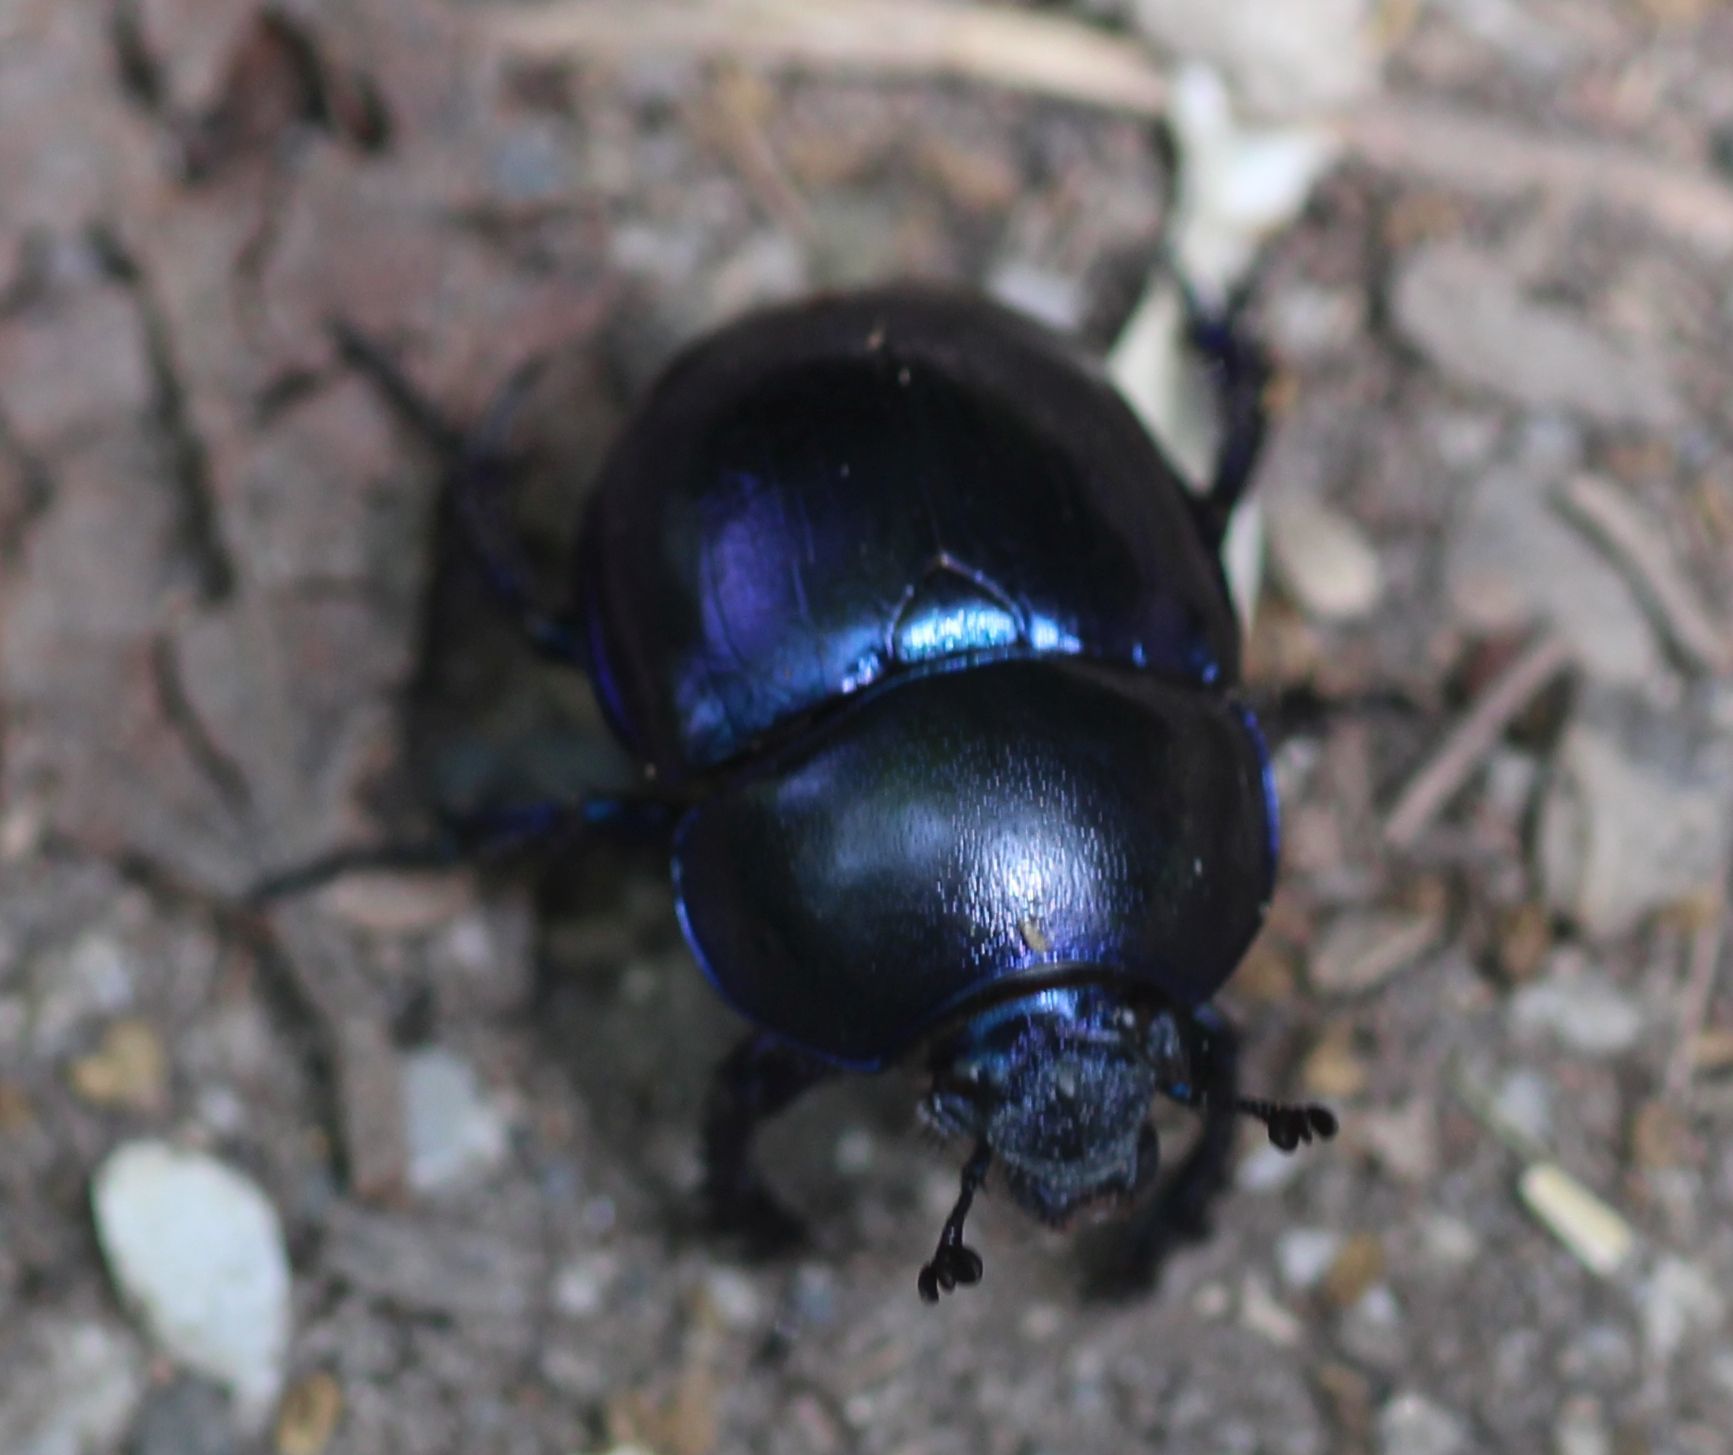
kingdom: Animalia
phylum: Arthropoda
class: Insecta
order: Coleoptera
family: Geotrupidae
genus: Trypocopris
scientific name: Trypocopris vernalis
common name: Spring dumbledor
